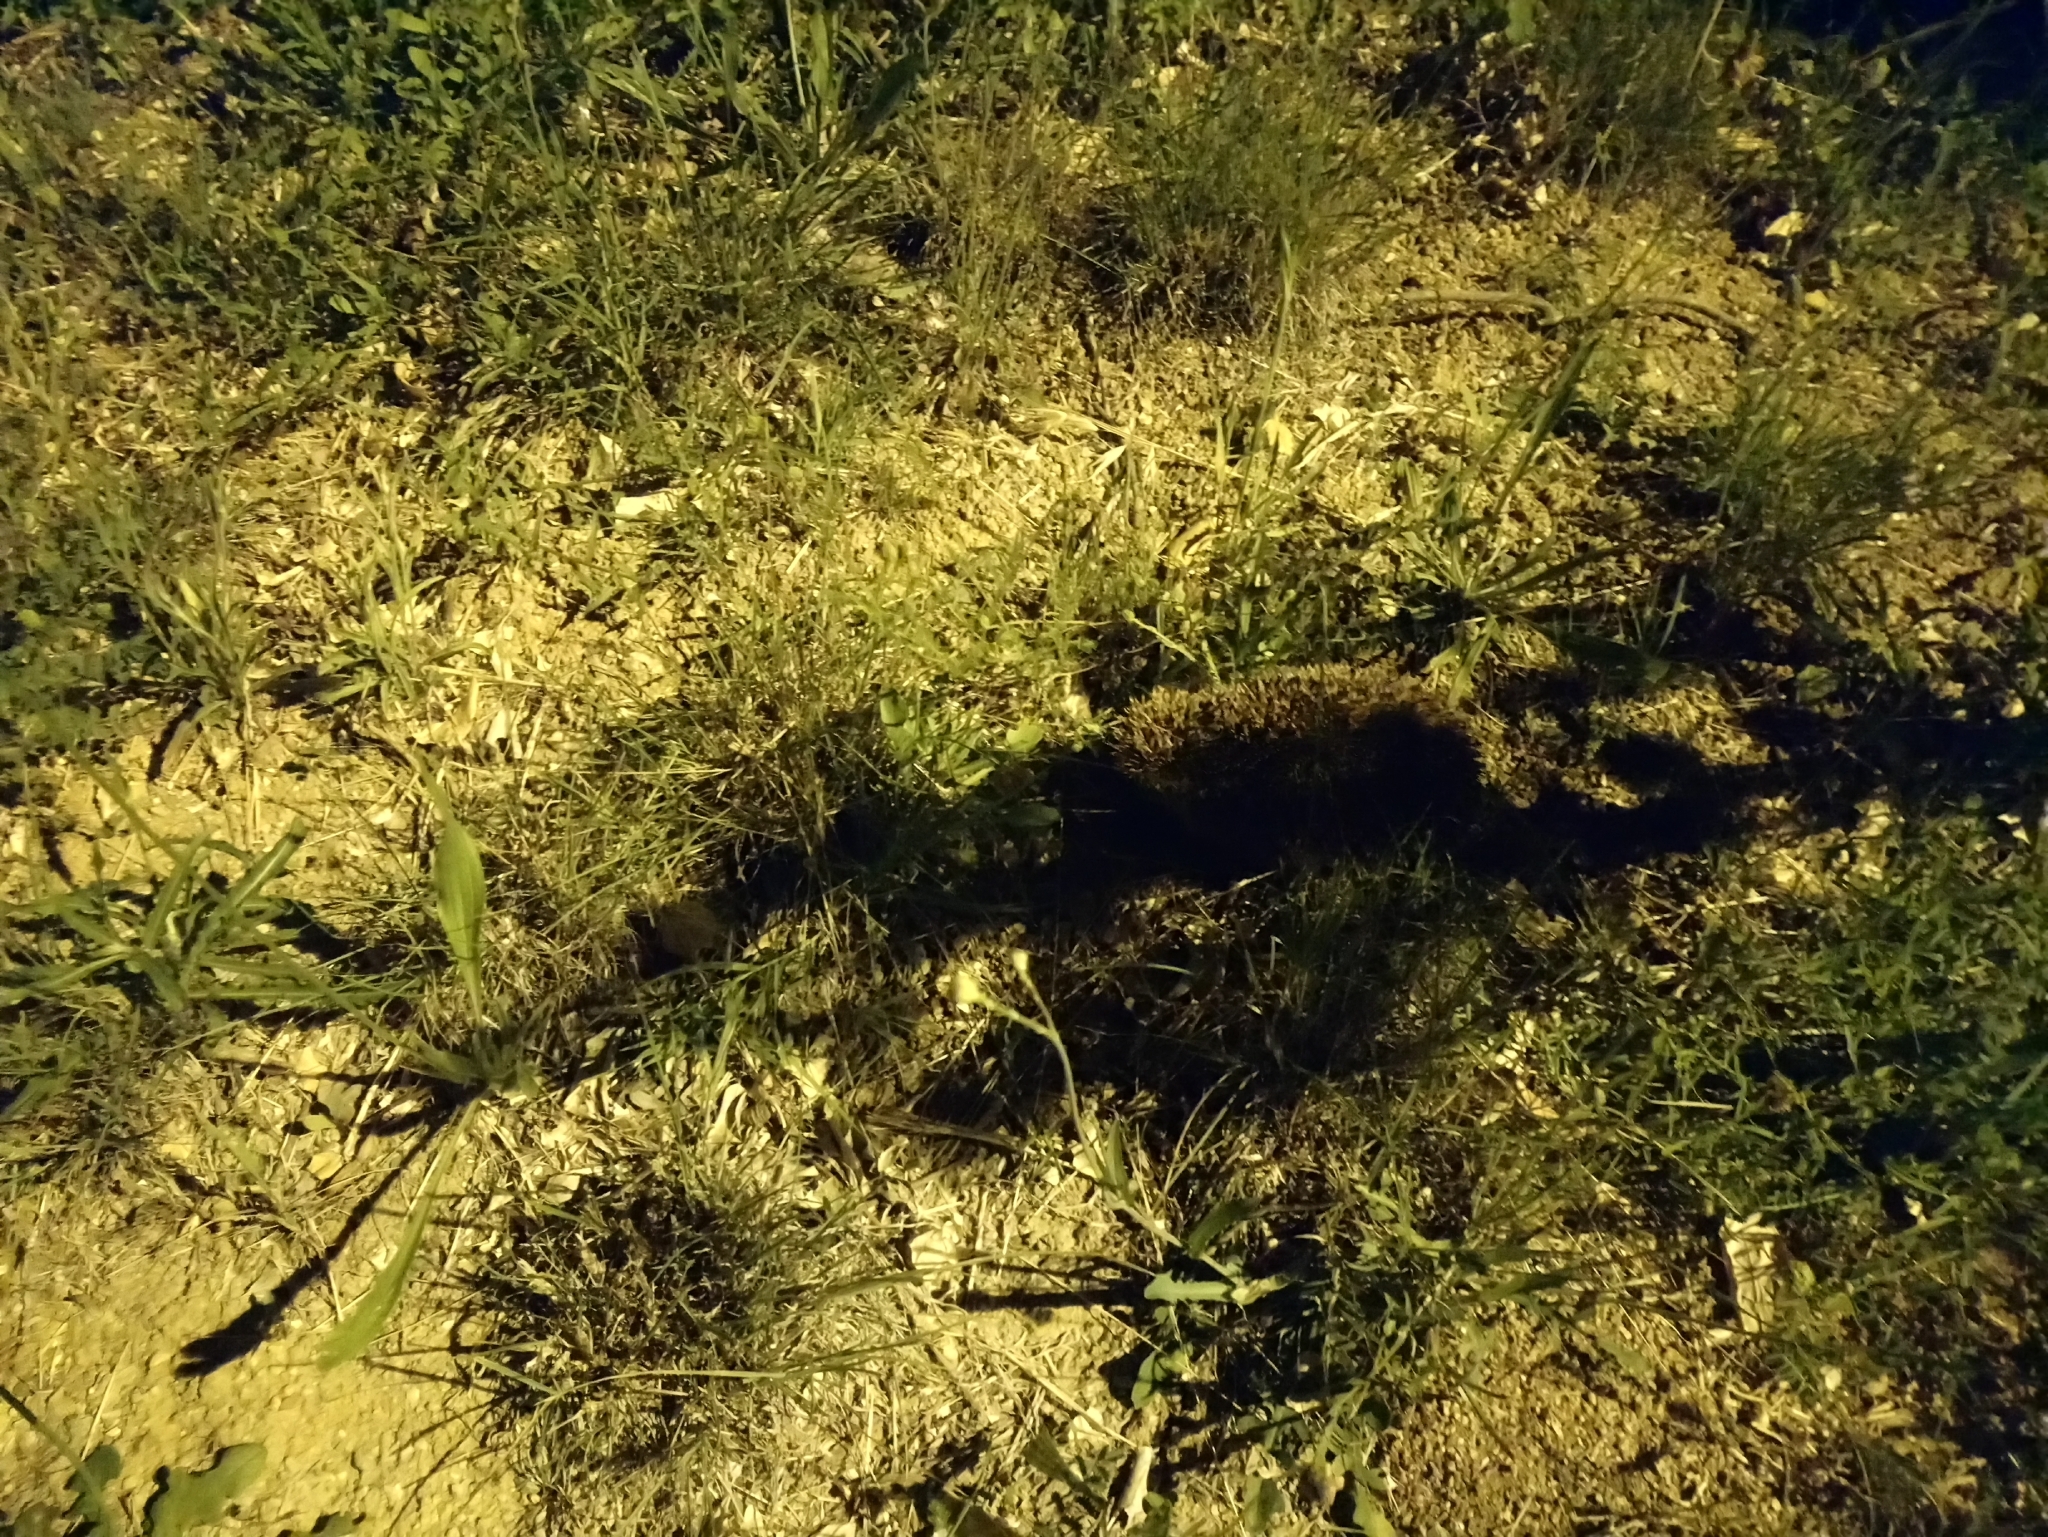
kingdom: Animalia
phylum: Chordata
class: Mammalia
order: Erinaceomorpha
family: Erinaceidae
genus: Erinaceus
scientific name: Erinaceus europaeus
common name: West european hedgehog
